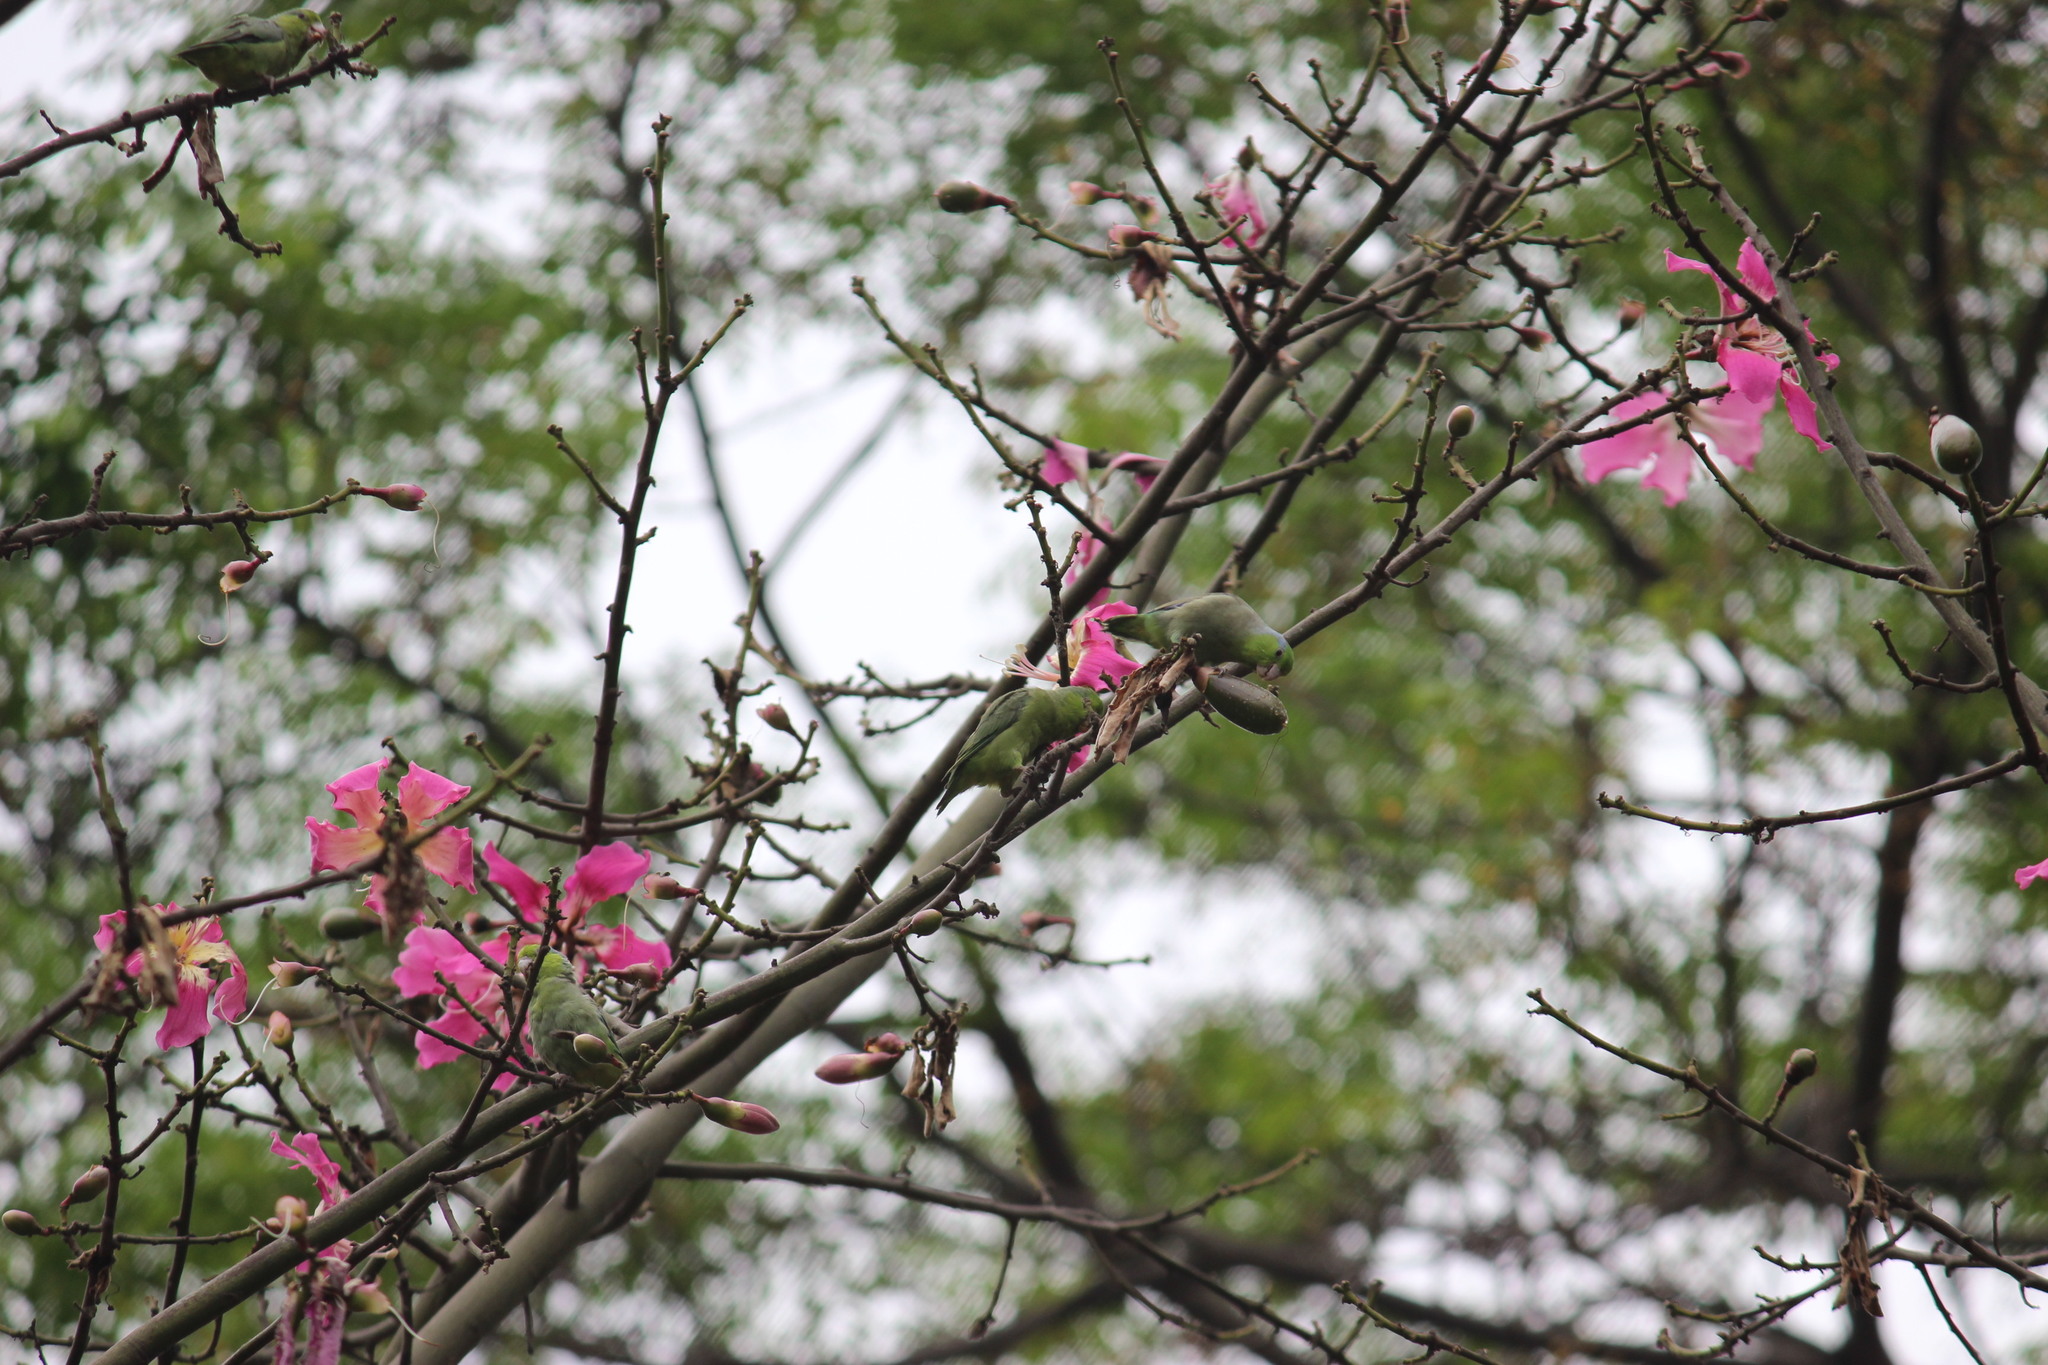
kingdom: Animalia
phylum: Chordata
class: Aves
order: Psittaciformes
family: Psittacidae
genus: Forpus
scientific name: Forpus coelestis
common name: Pacific parrotlet
